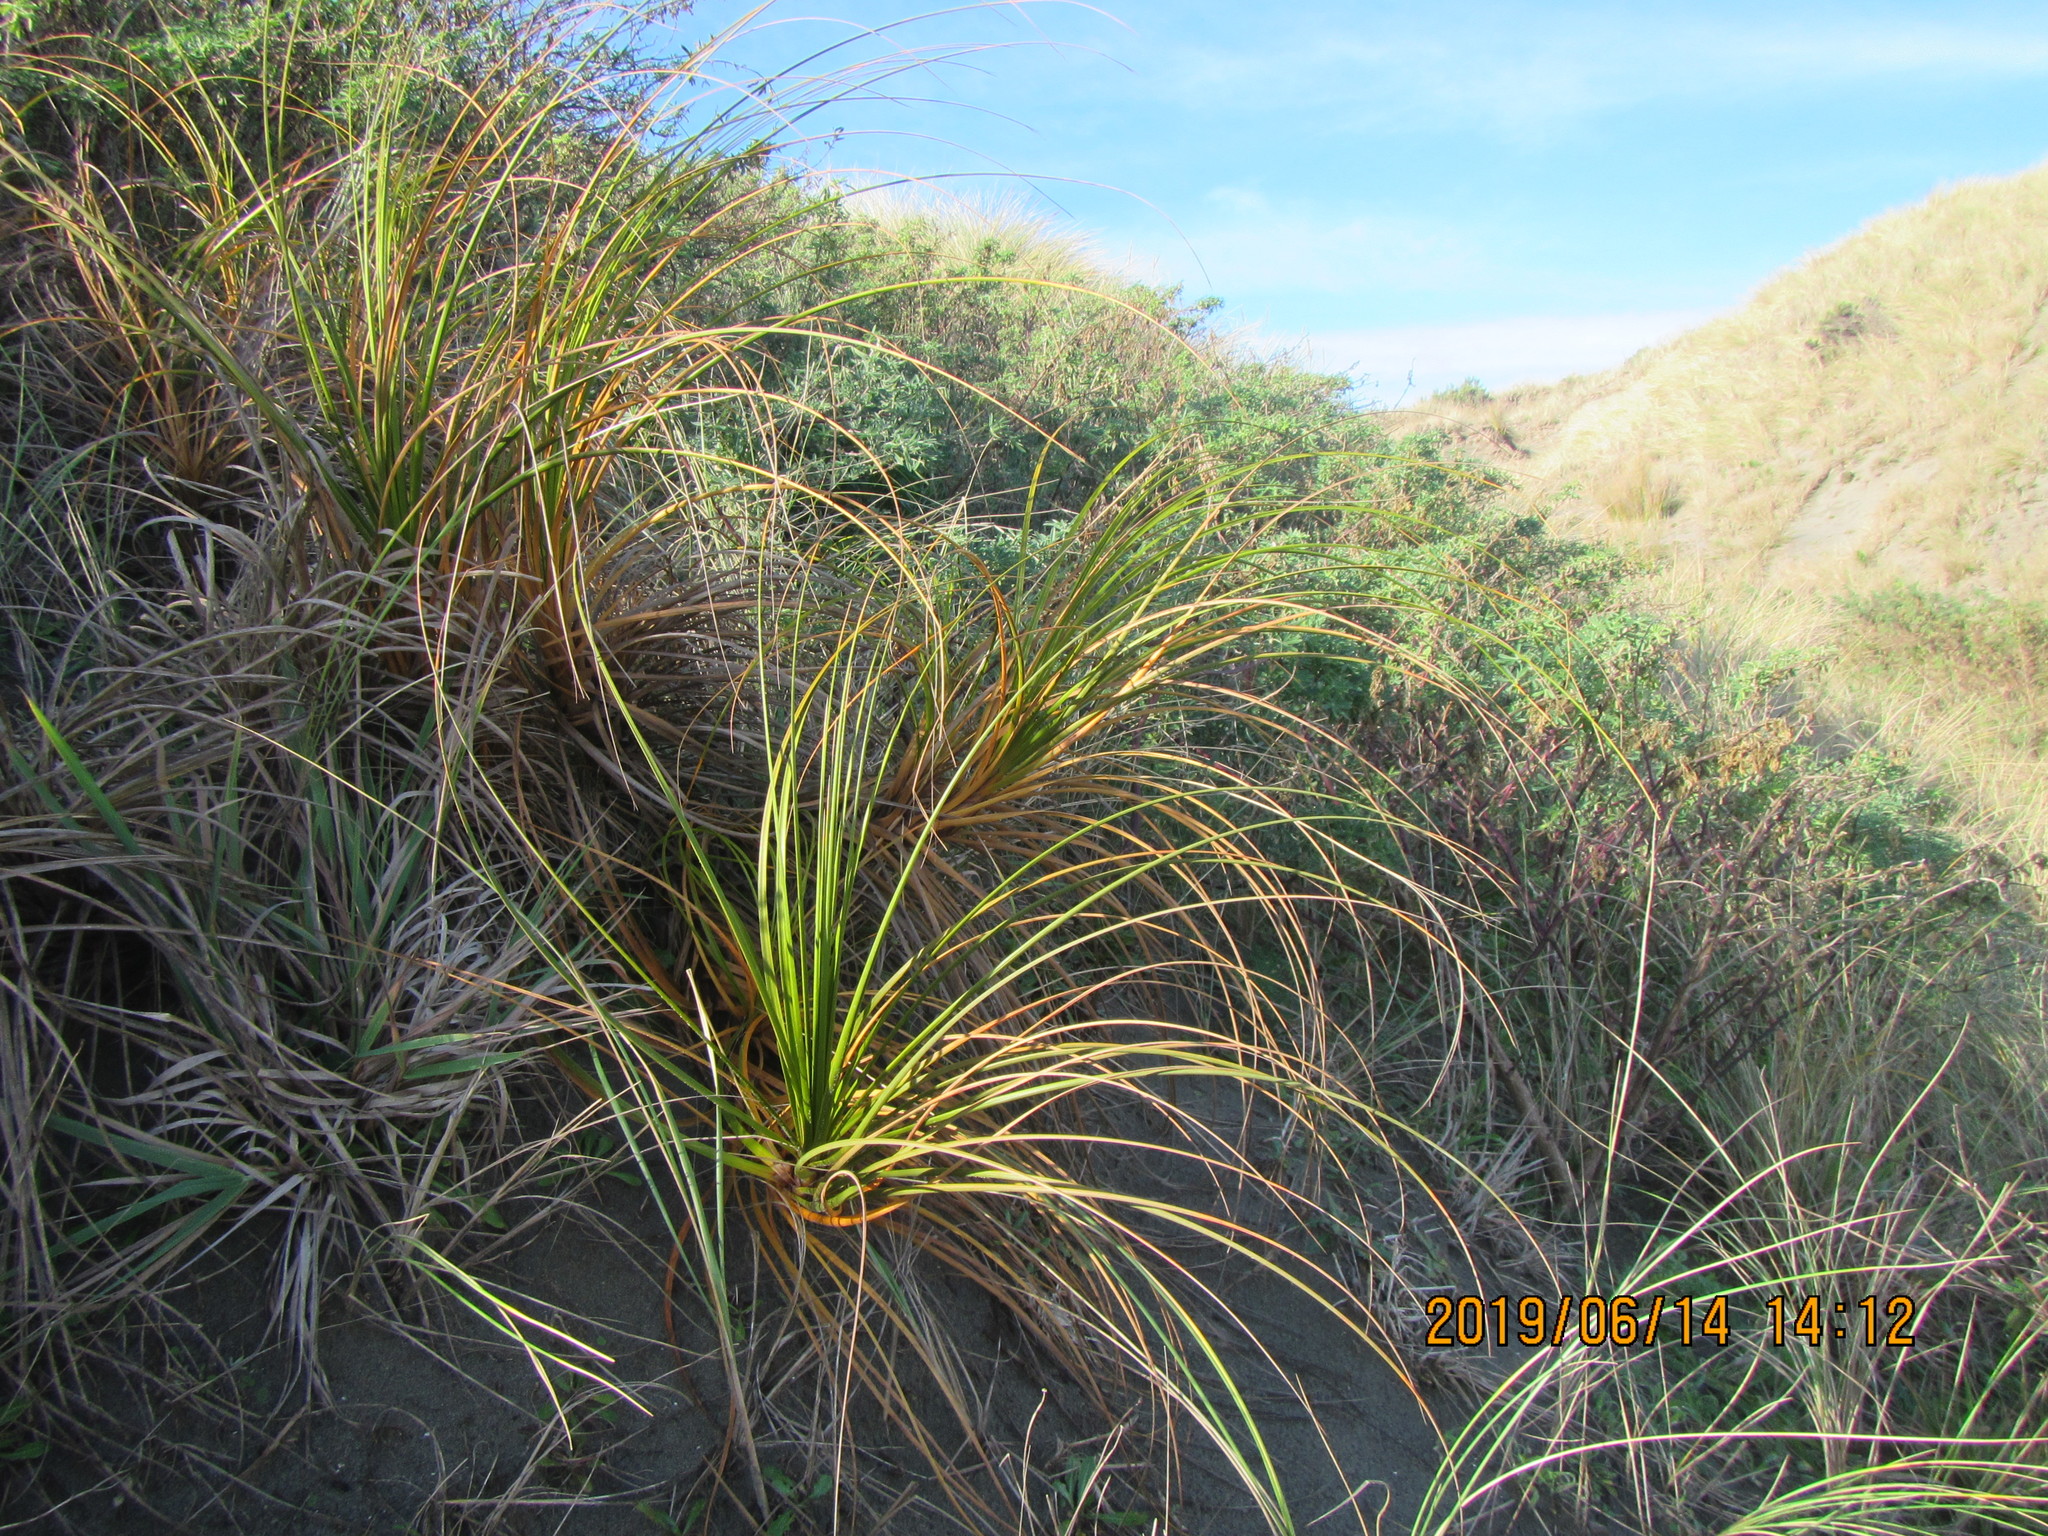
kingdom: Plantae
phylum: Tracheophyta
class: Liliopsida
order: Poales
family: Cyperaceae
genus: Ficinia
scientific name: Ficinia spiralis
